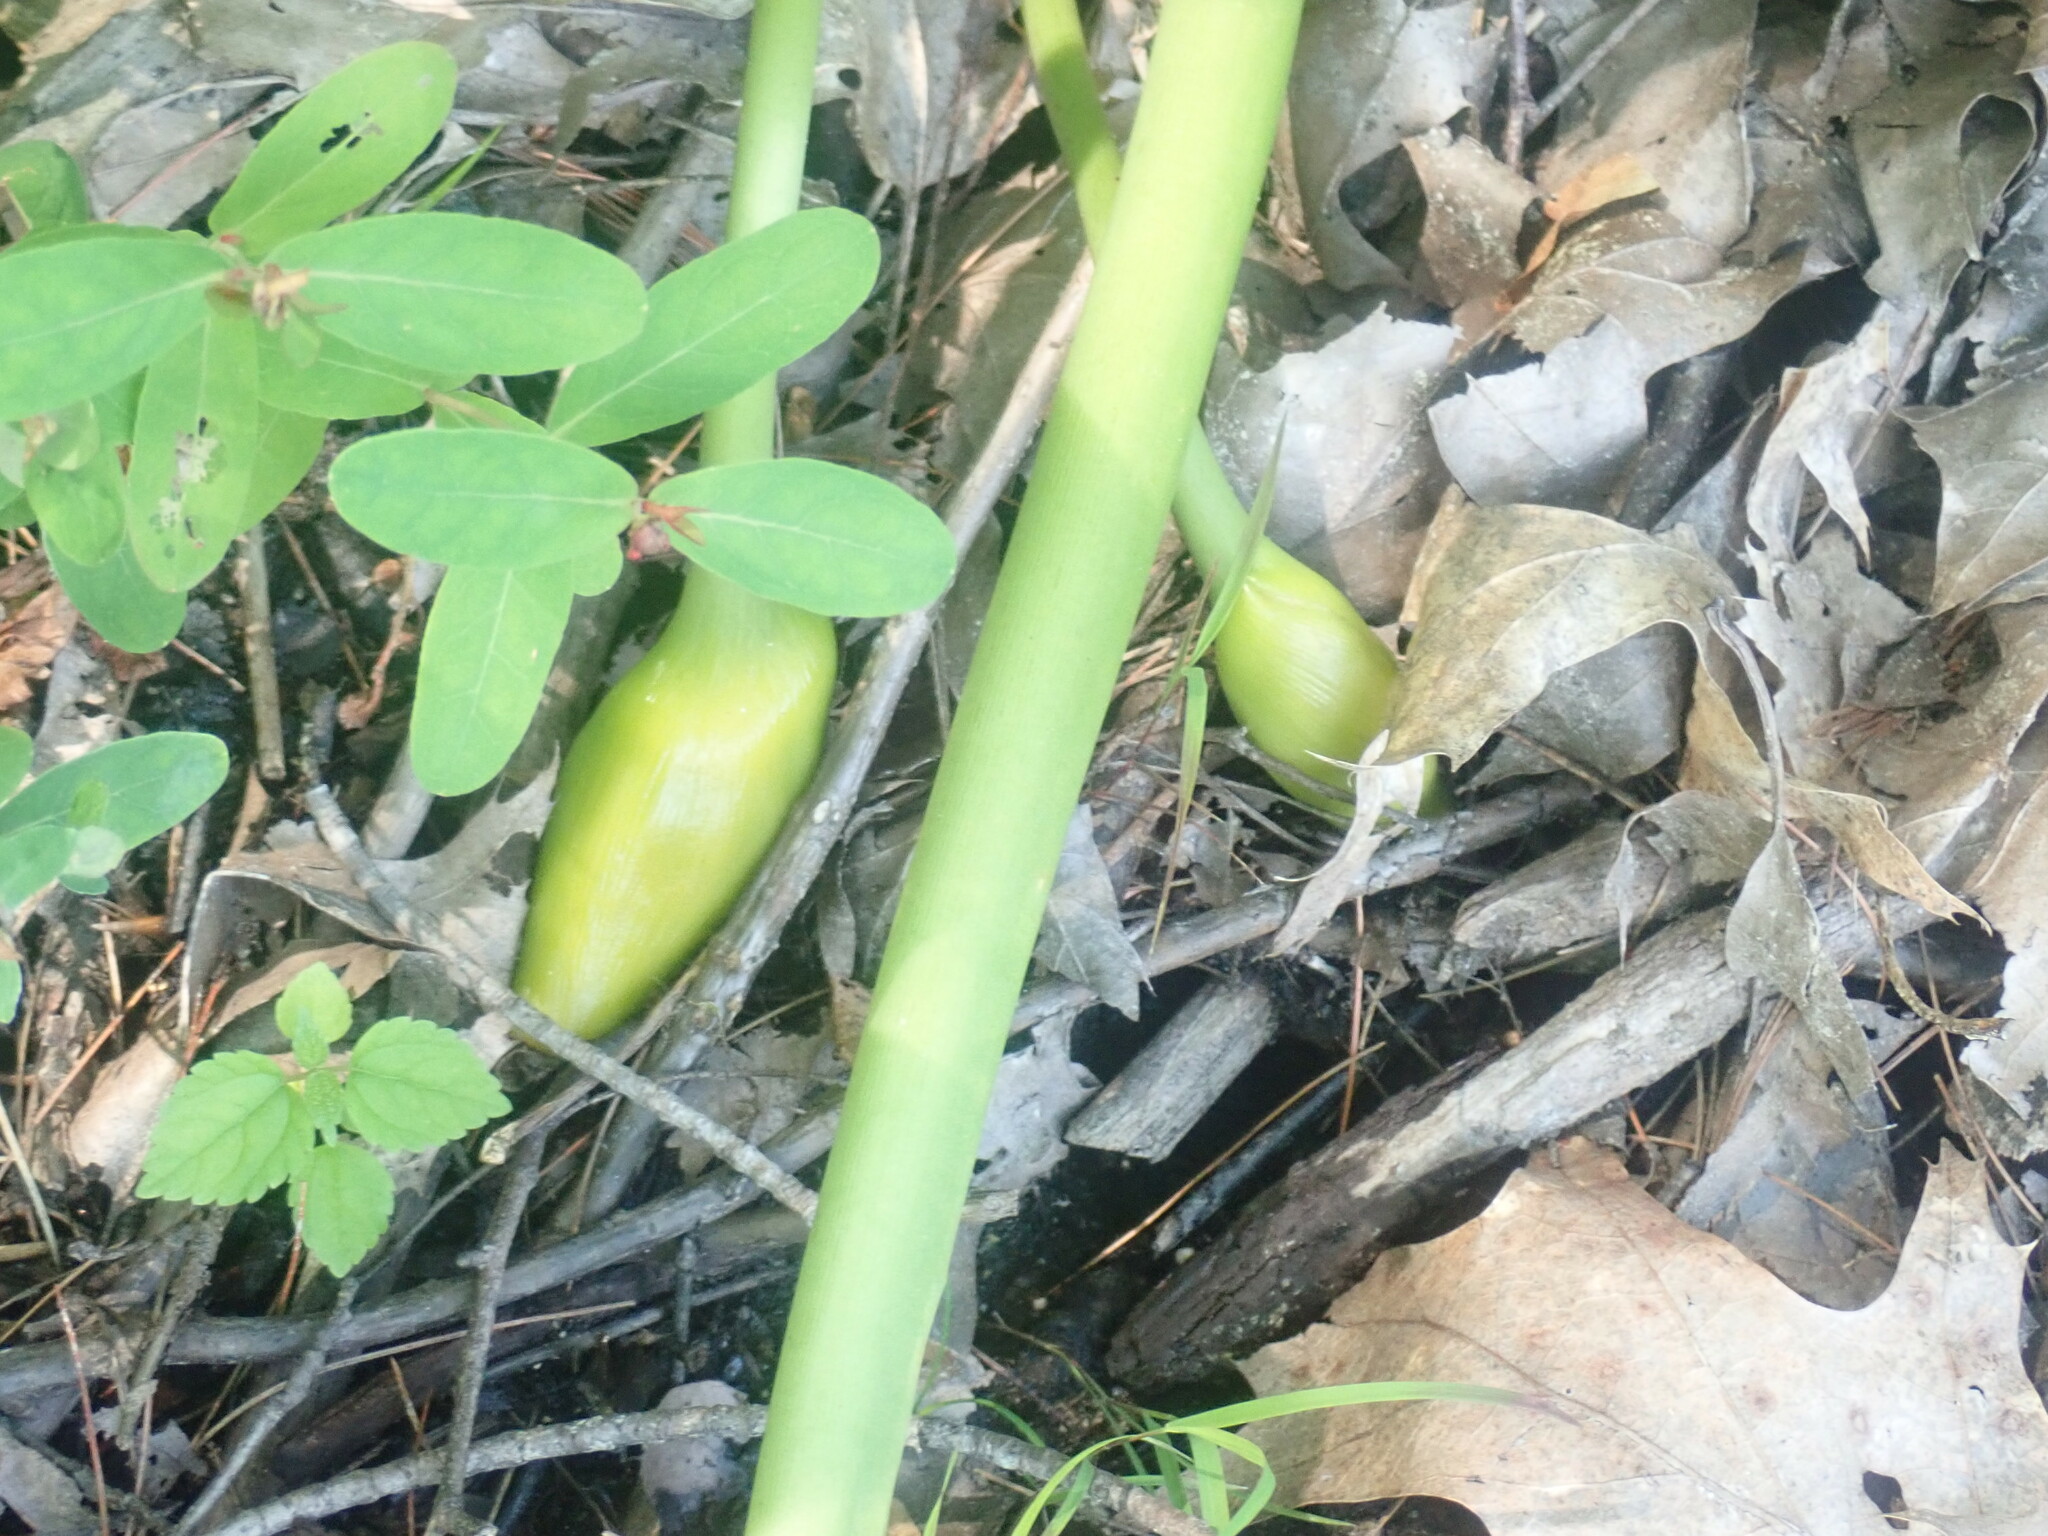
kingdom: Plantae
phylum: Tracheophyta
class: Liliopsida
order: Alismatales
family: Araceae
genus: Peltandra
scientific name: Peltandra virginica
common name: Arrow arum
